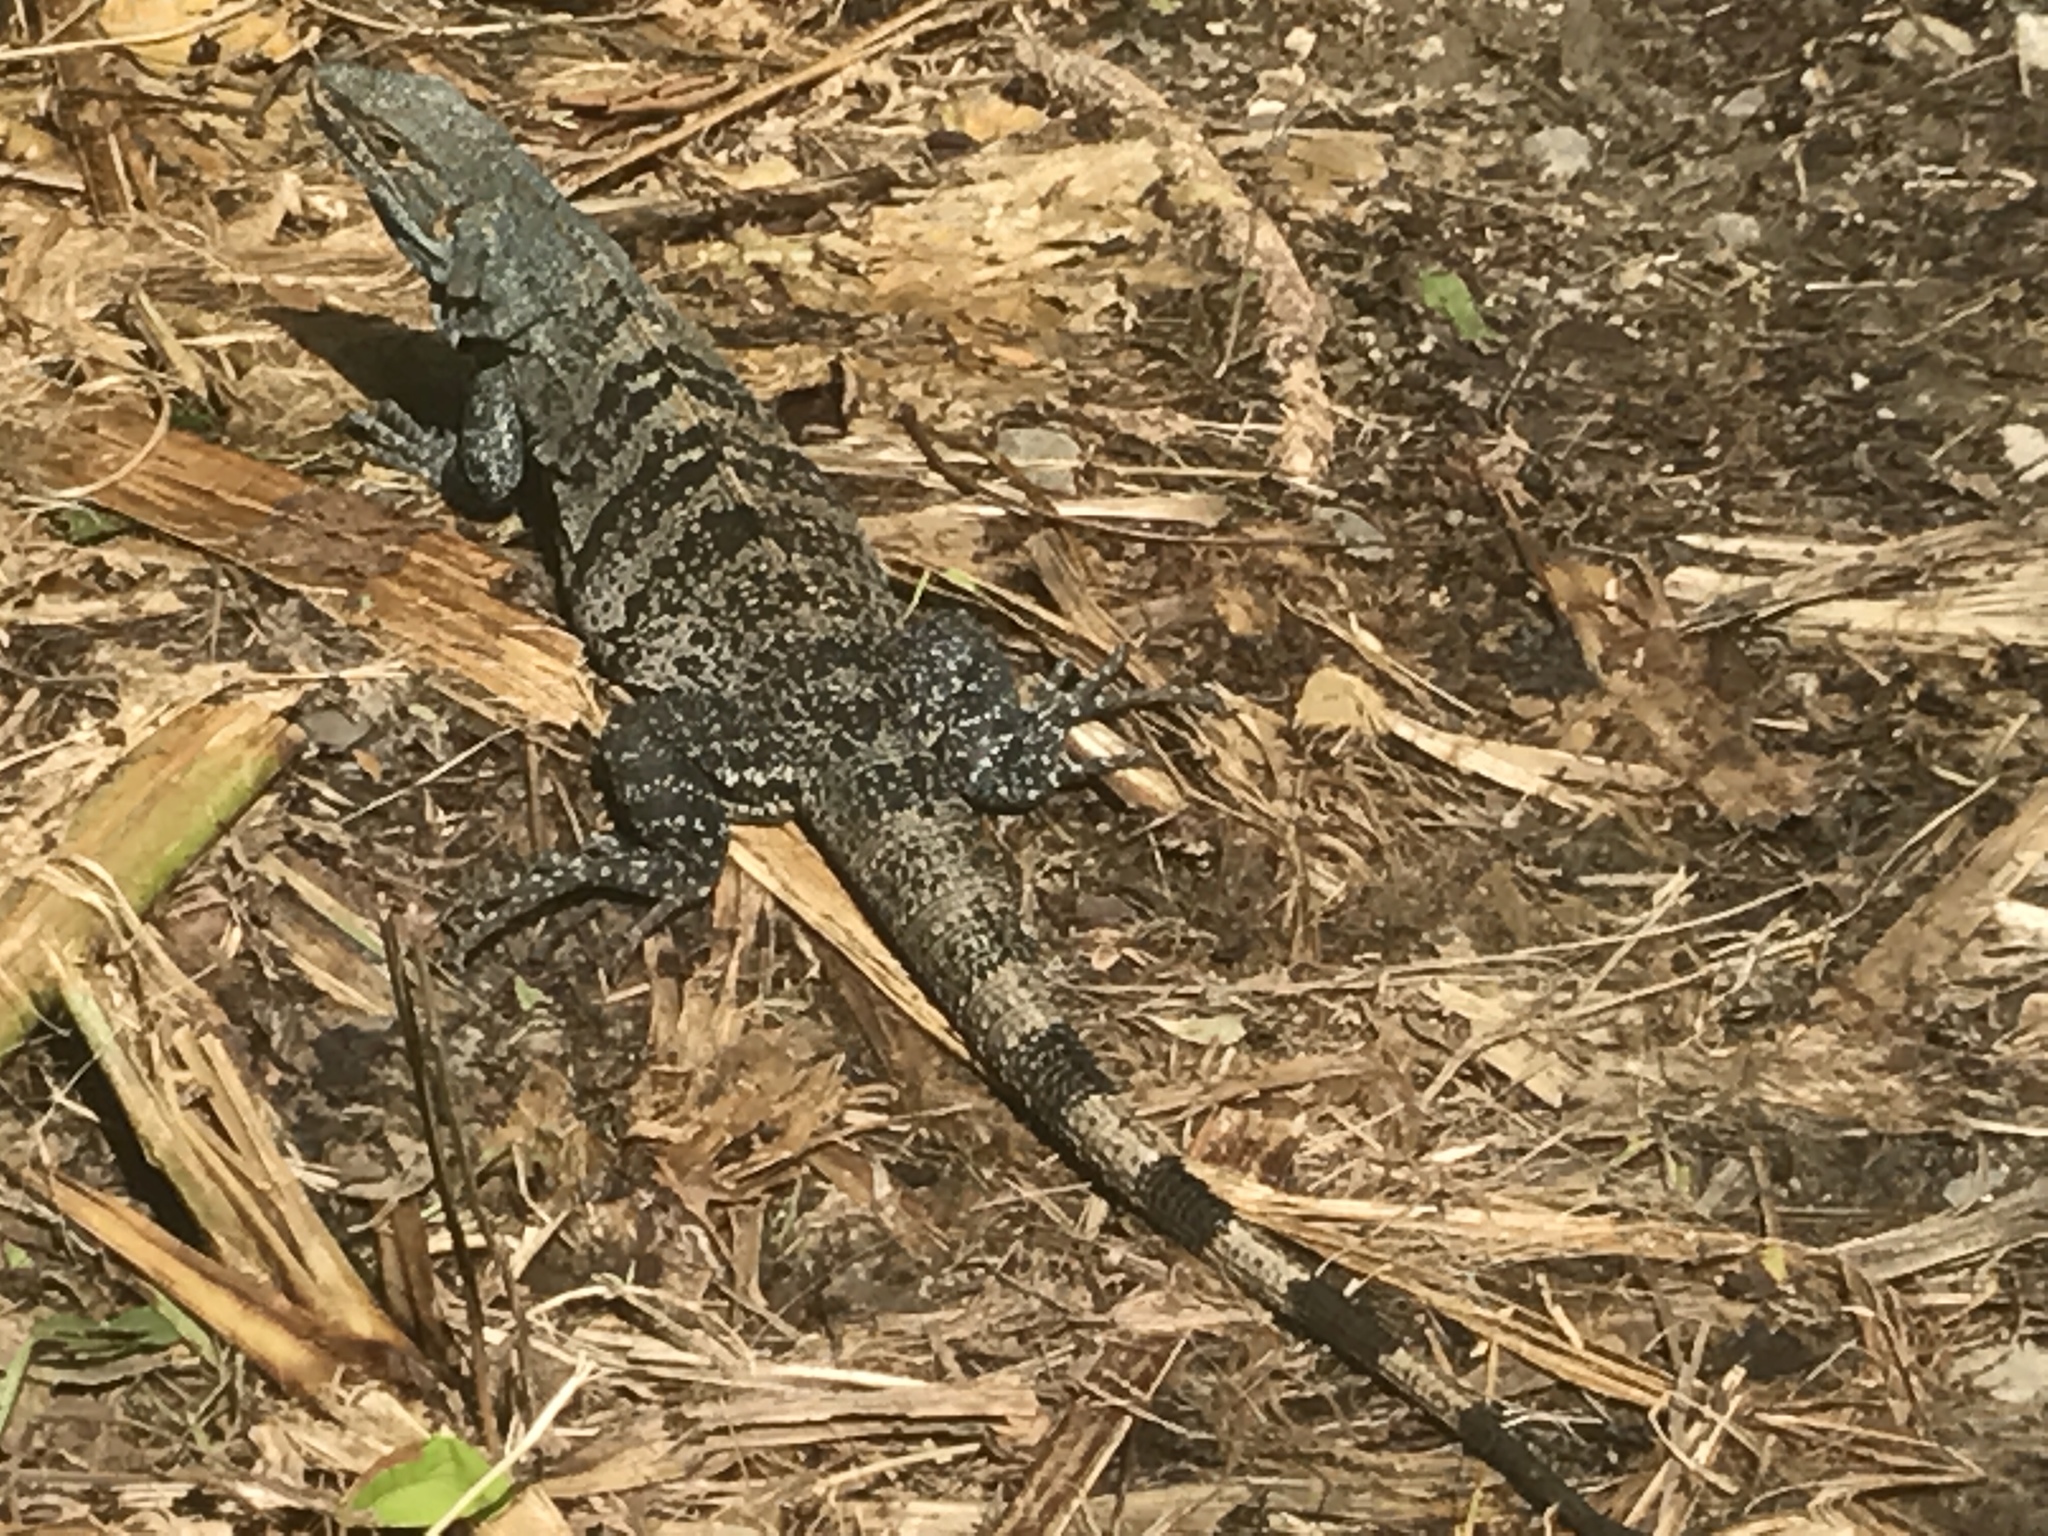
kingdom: Animalia
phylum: Chordata
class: Squamata
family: Iguanidae
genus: Ctenosaura
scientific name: Ctenosaura similis
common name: Black spiny-tailed iguana
